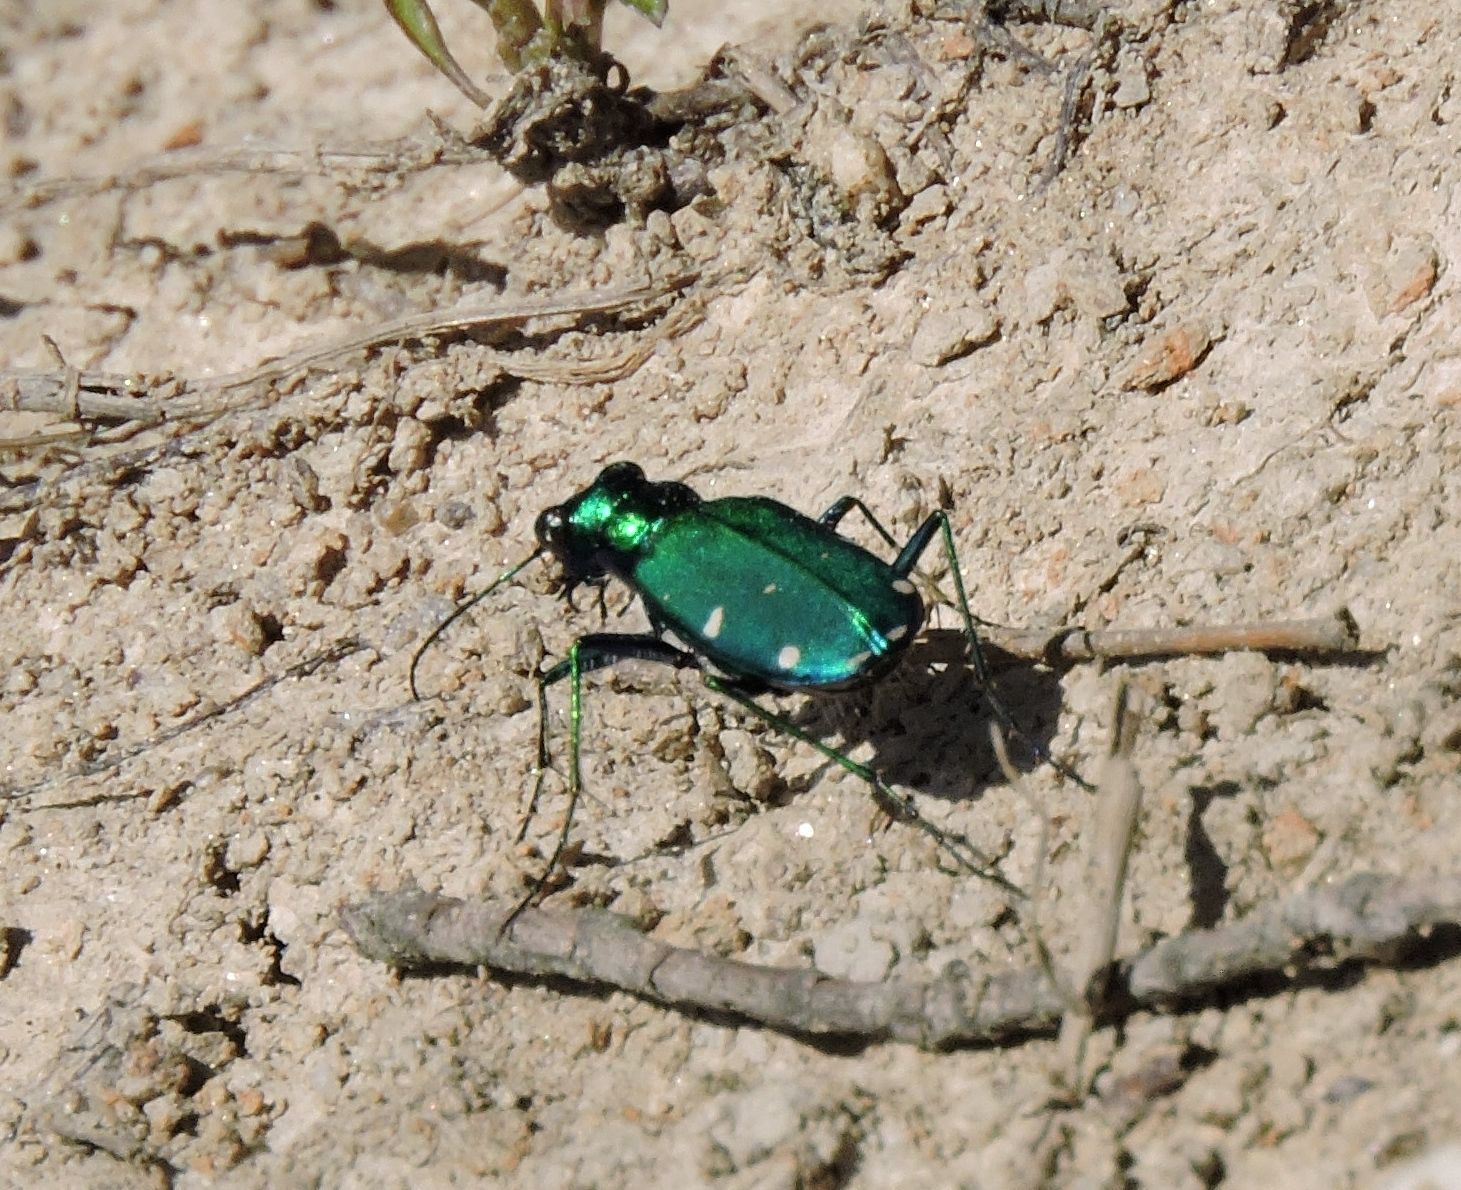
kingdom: Animalia
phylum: Arthropoda
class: Insecta
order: Coleoptera
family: Carabidae
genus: Cicindela
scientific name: Cicindela sexguttata
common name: Six-spotted tiger beetle
